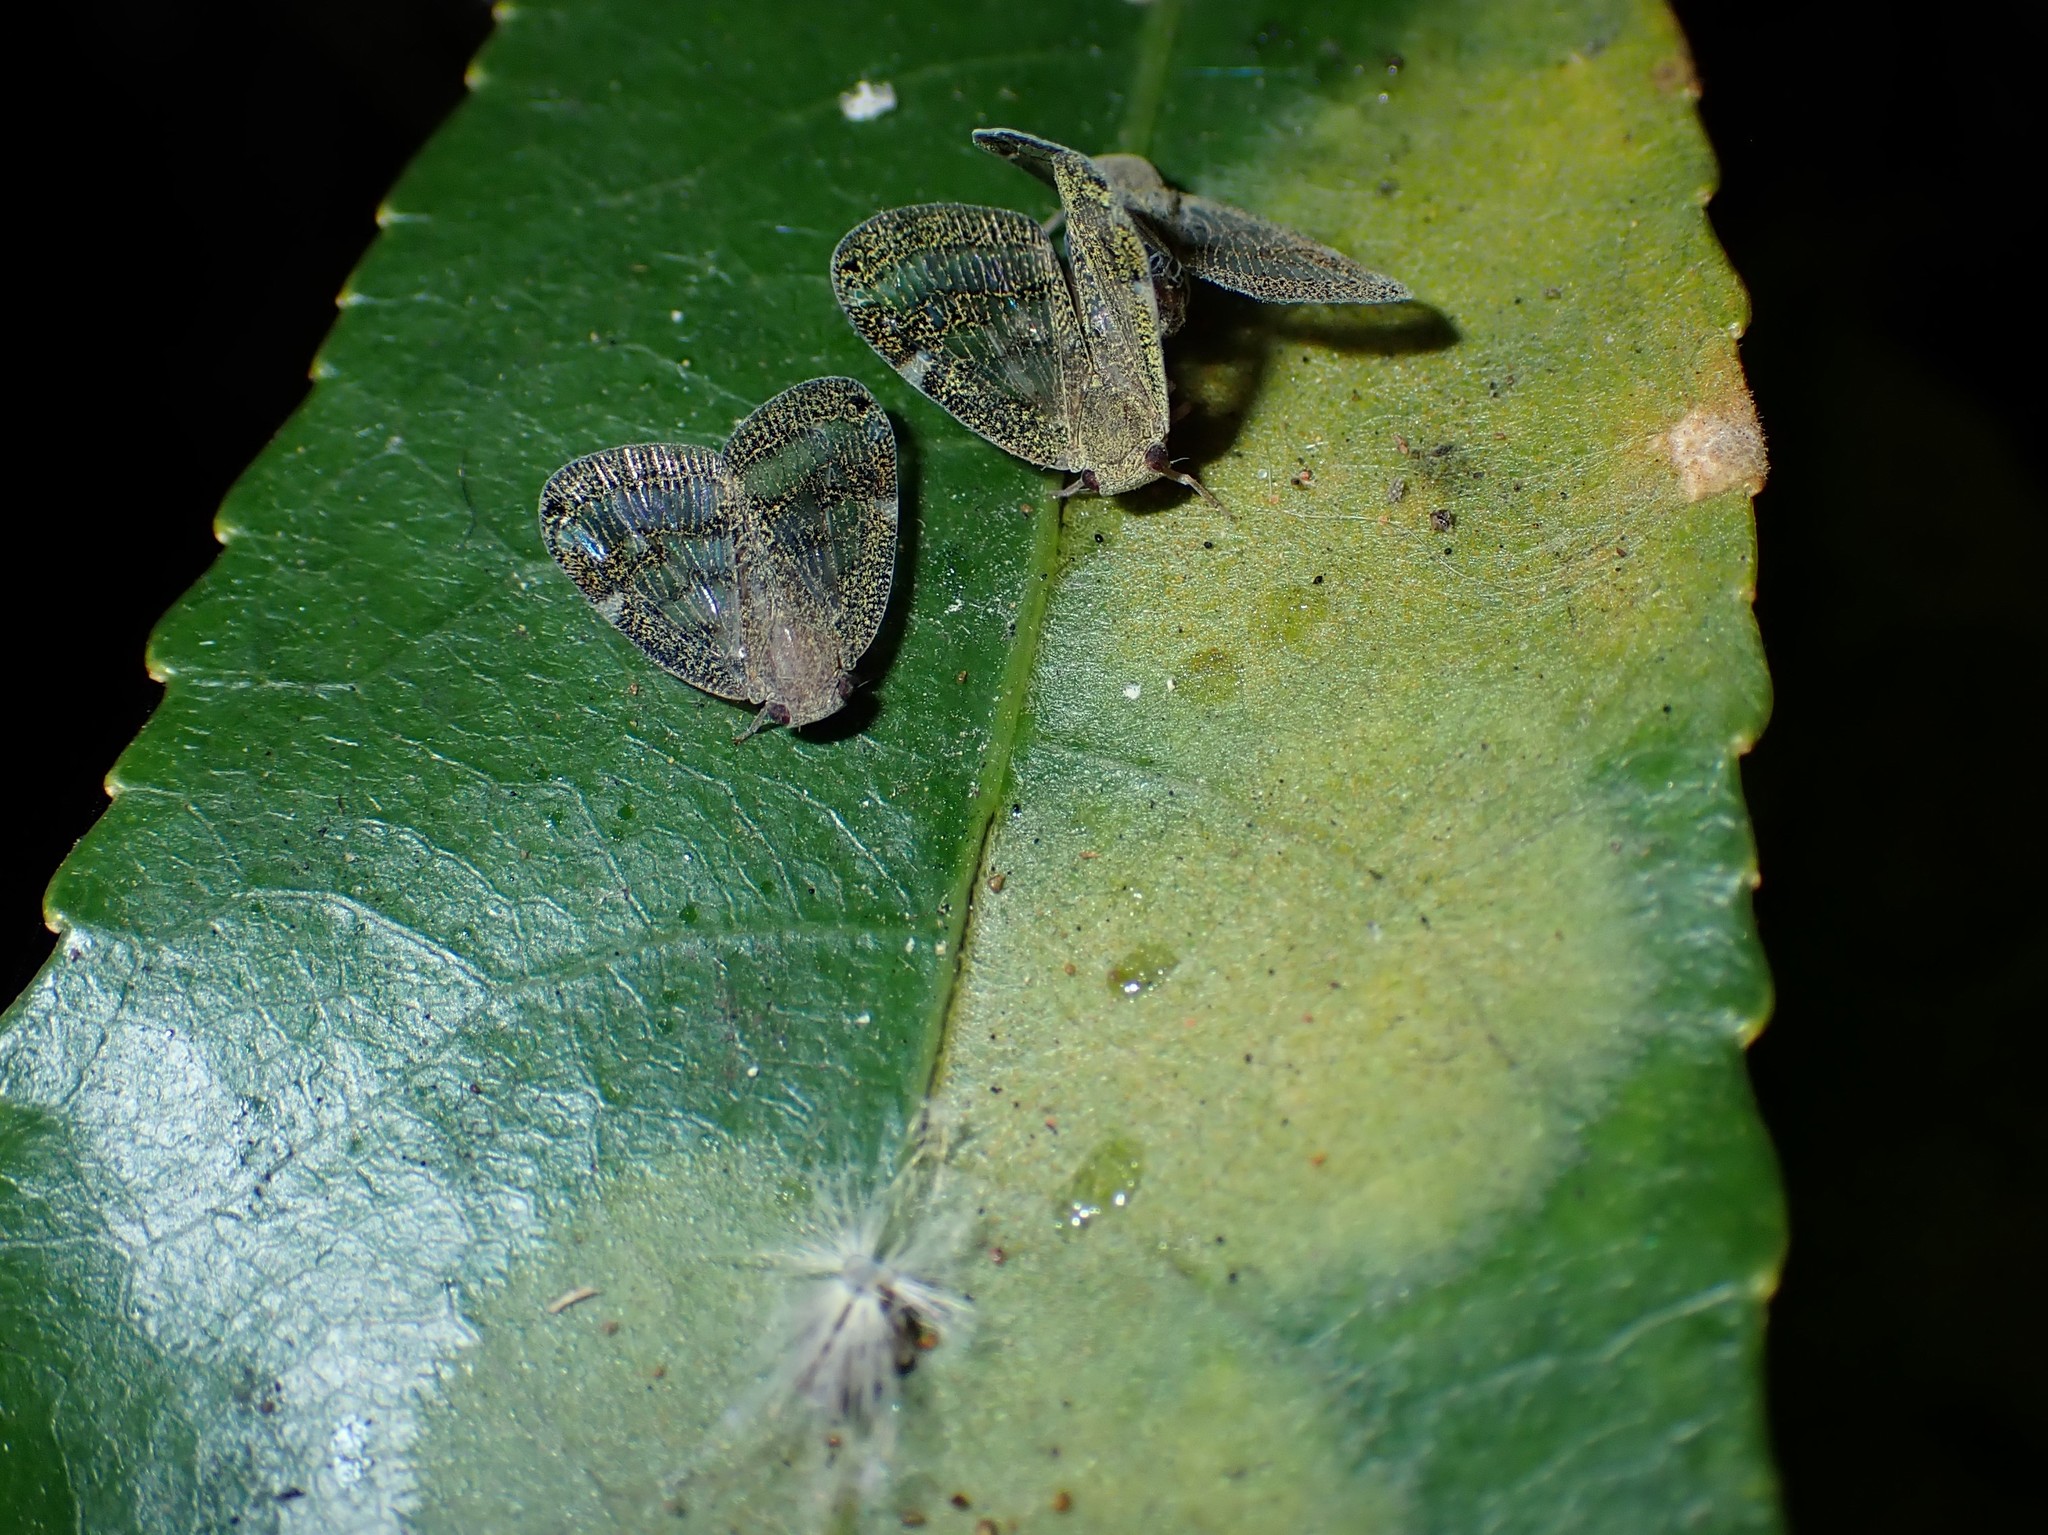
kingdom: Animalia
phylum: Arthropoda
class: Insecta
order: Hemiptera
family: Ricaniidae
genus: Scolypopa
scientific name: Scolypopa australis
